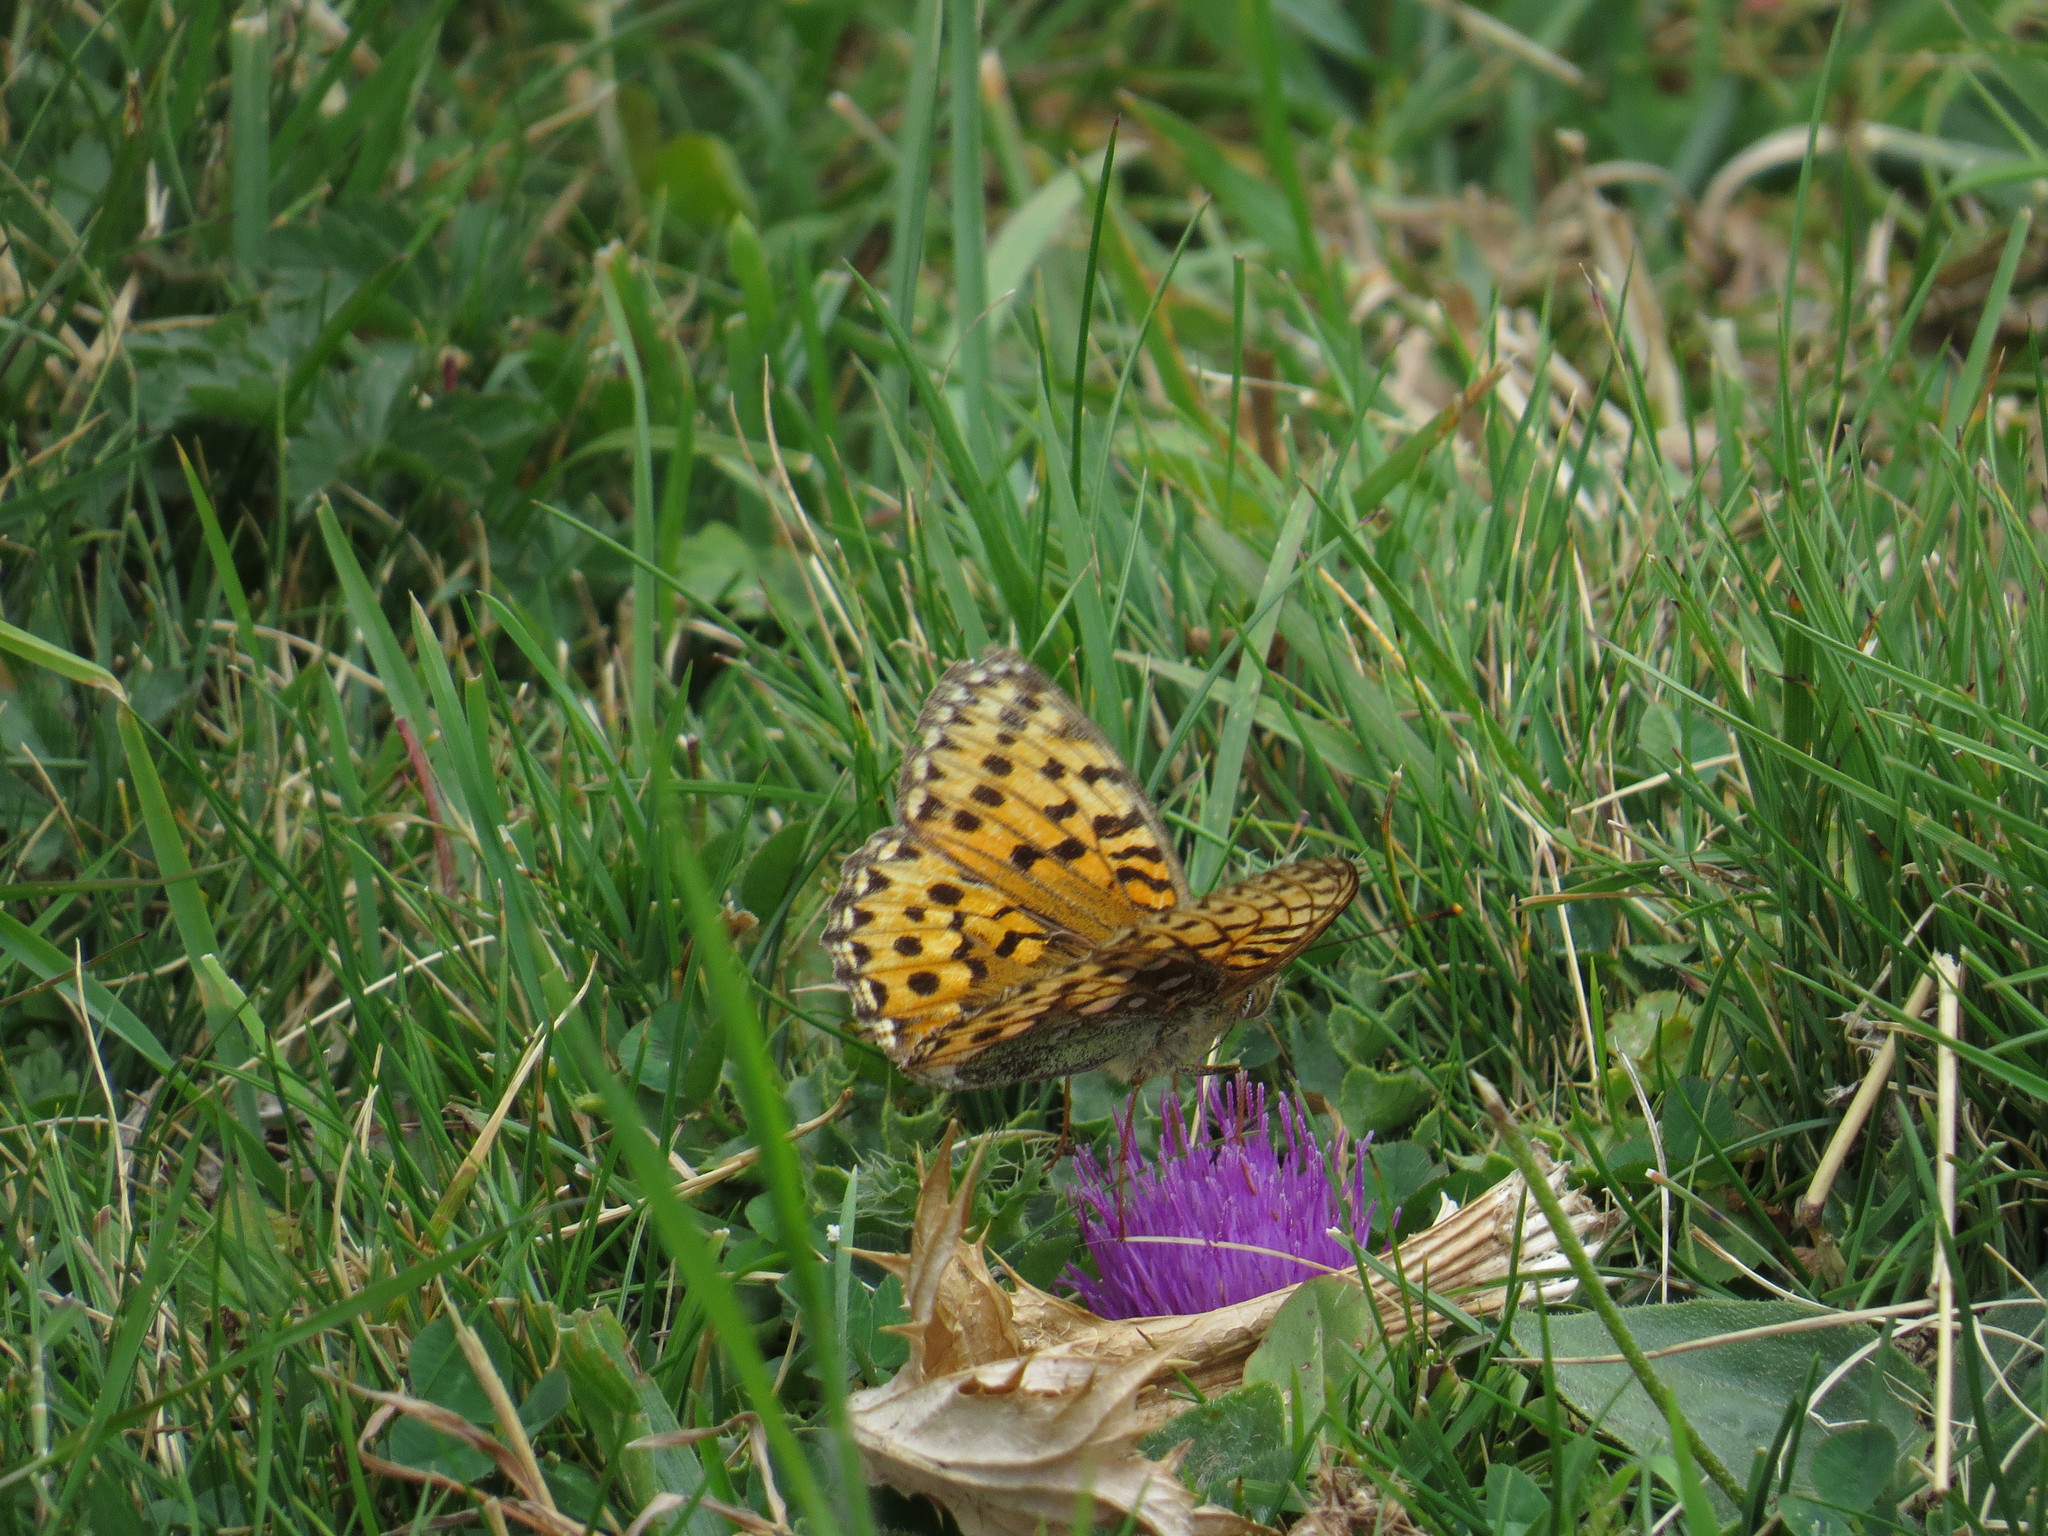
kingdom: Animalia
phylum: Arthropoda
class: Insecta
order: Lepidoptera
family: Nymphalidae
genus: Speyeria
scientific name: Speyeria aglaja
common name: Dark green fritillary
